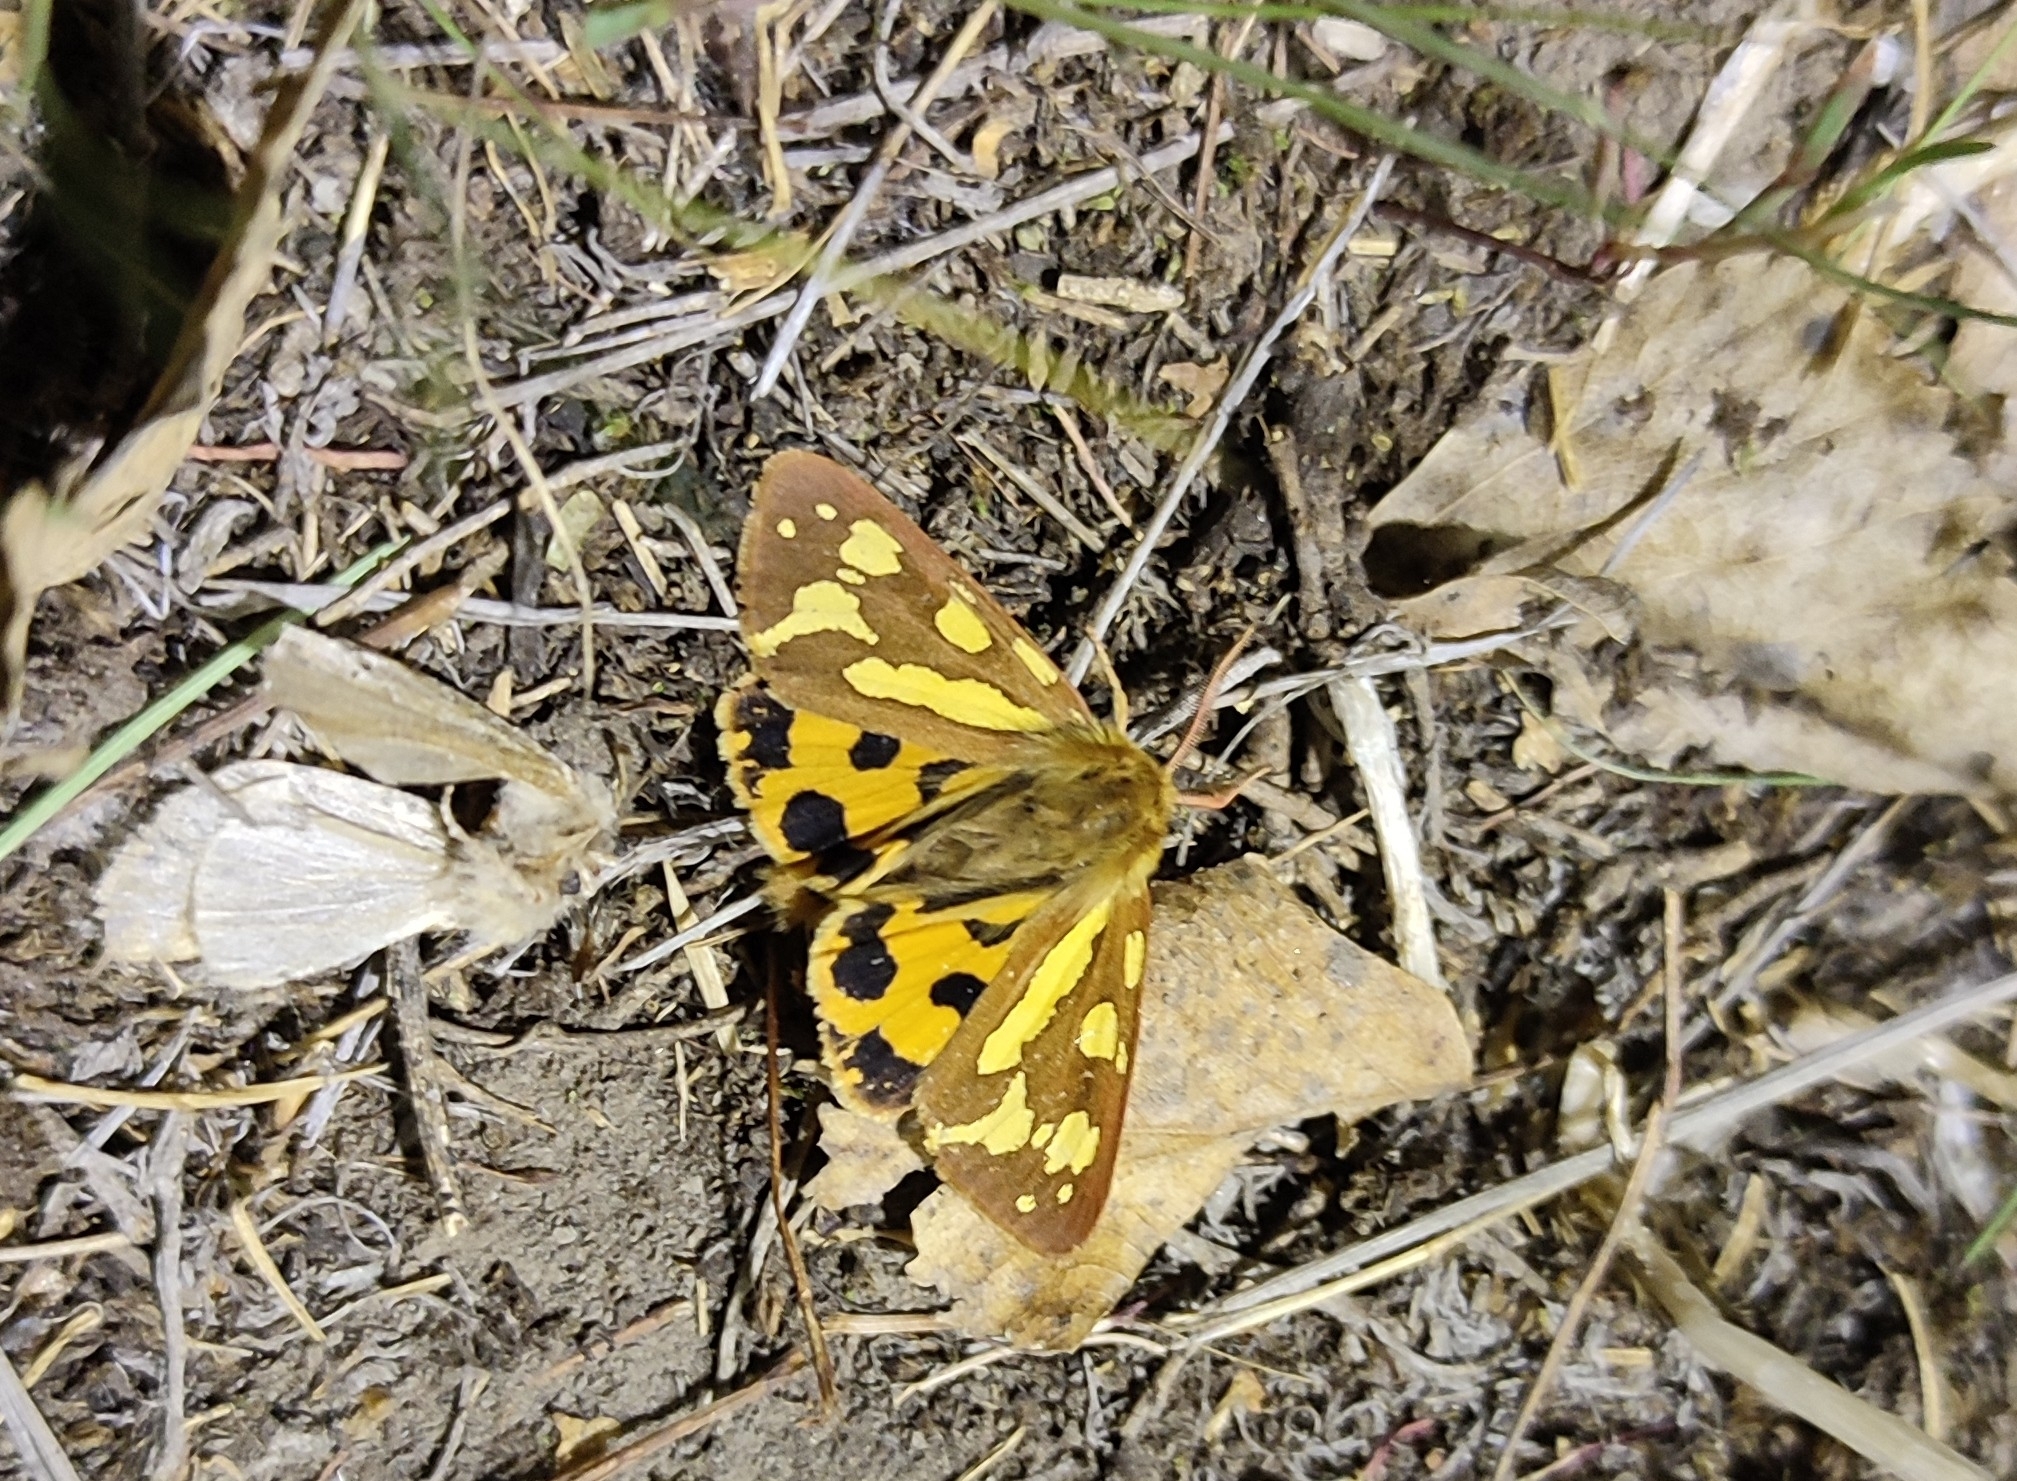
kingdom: Animalia
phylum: Arthropoda
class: Insecta
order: Lepidoptera
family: Erebidae
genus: Hyphoraia
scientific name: Hyphoraia aulica
